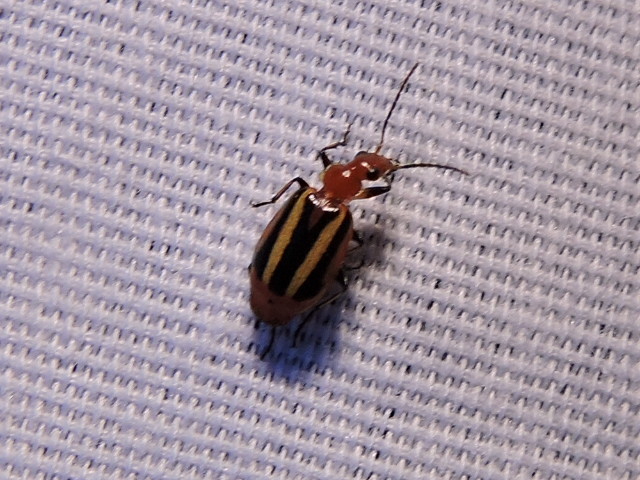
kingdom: Animalia
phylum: Arthropoda
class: Insecta
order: Coleoptera
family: Carabidae
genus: Lebia
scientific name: Lebia vittata
